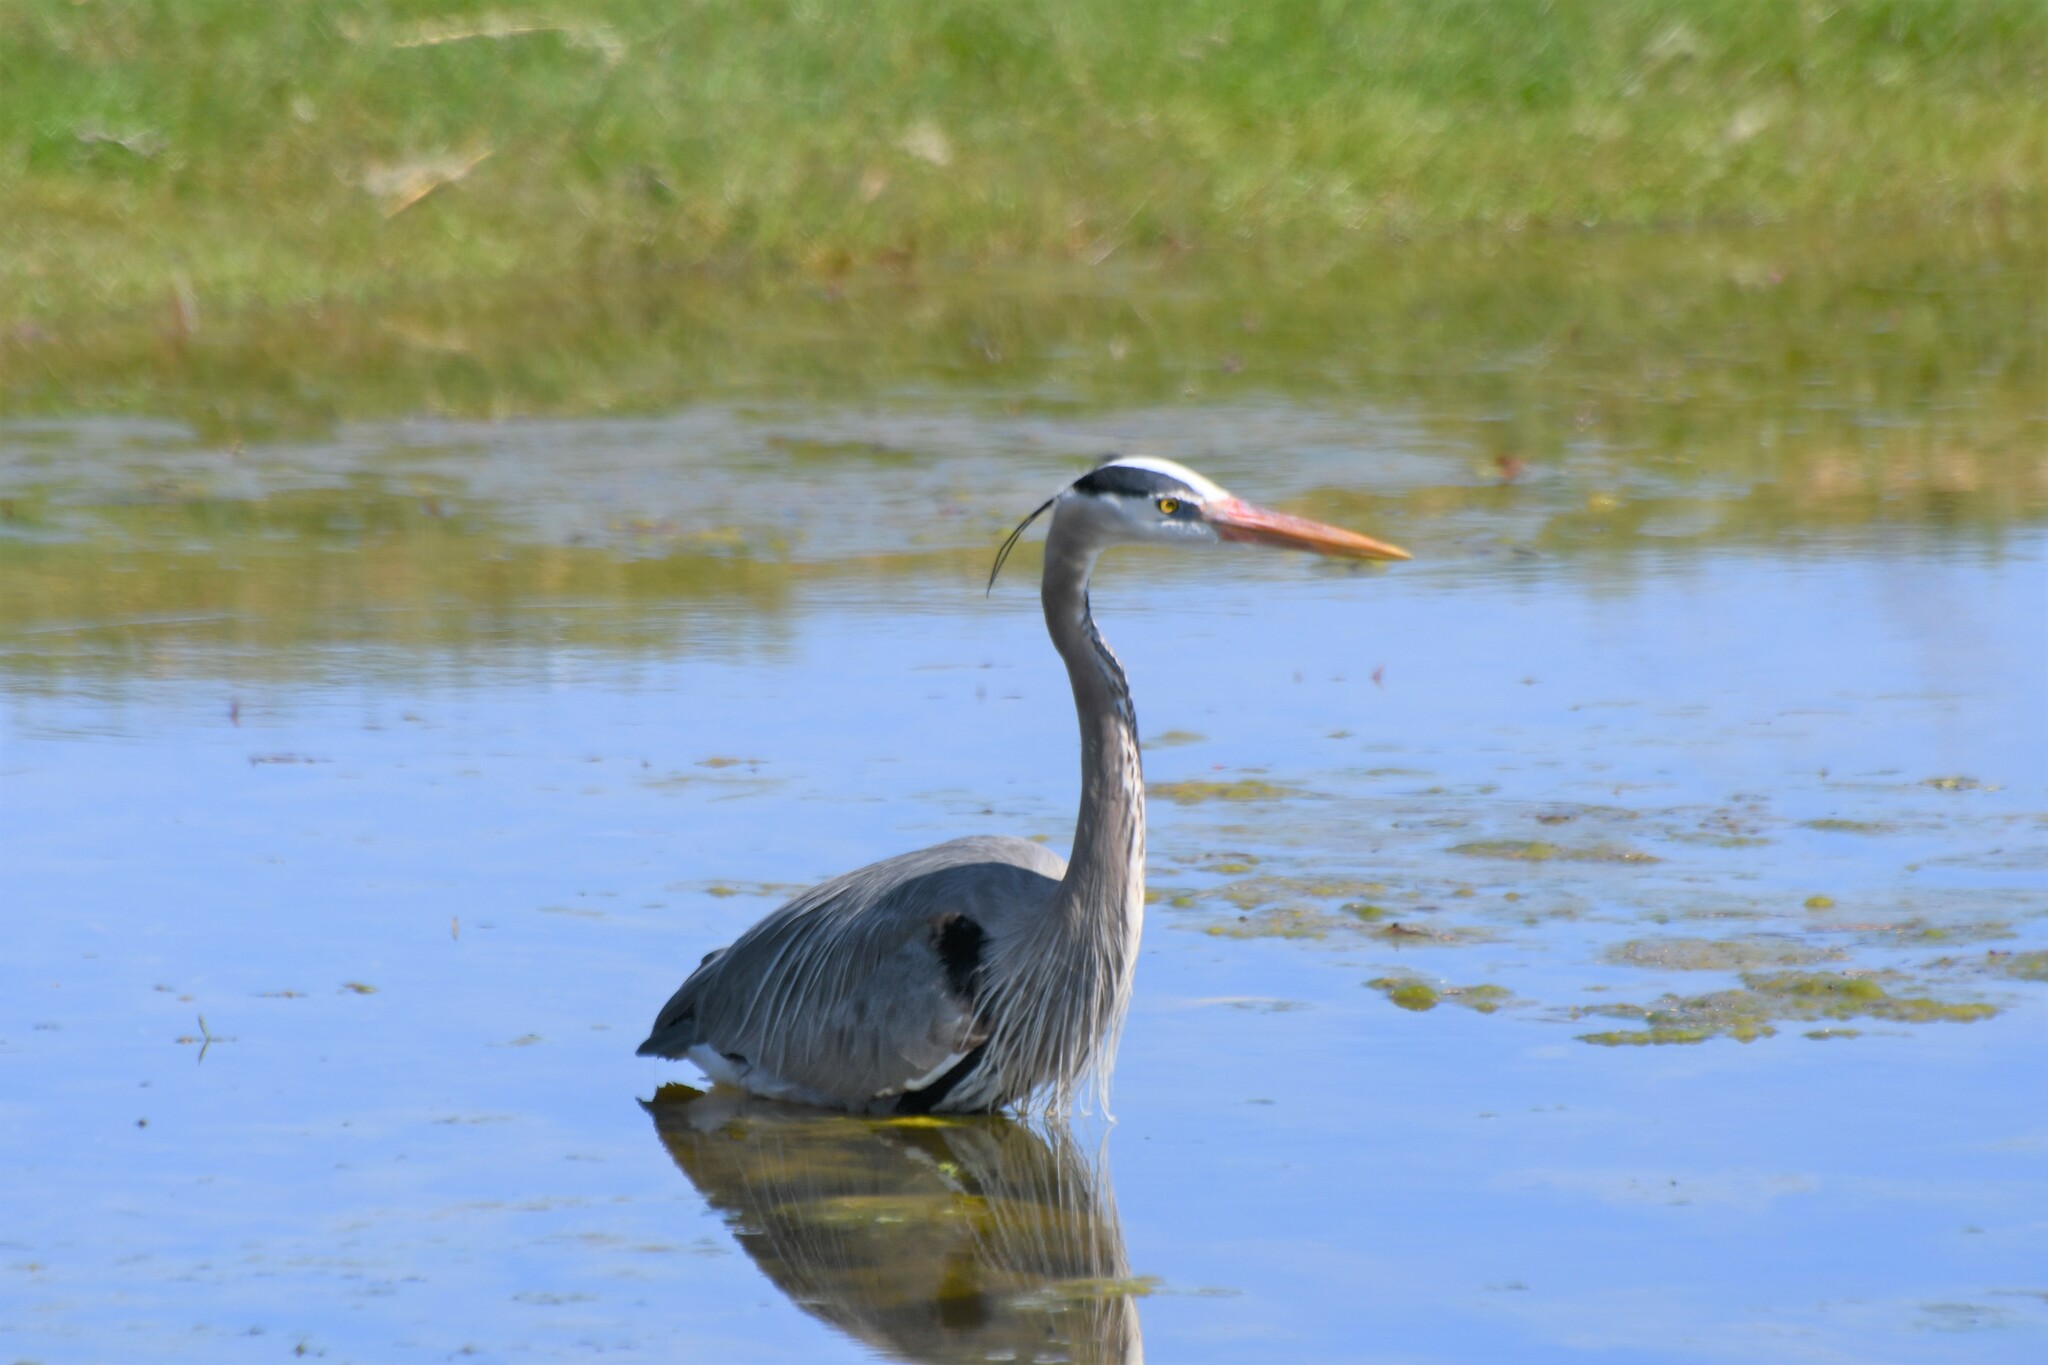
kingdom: Animalia
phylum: Chordata
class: Aves
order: Pelecaniformes
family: Ardeidae
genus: Ardea
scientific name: Ardea herodias
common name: Great blue heron
